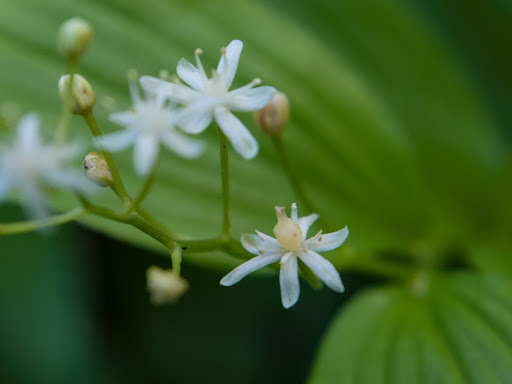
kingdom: Plantae
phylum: Tracheophyta
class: Liliopsida
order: Asparagales
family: Asparagaceae
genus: Maianthemum
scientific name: Maianthemum stellatum
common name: Little false solomon's seal
